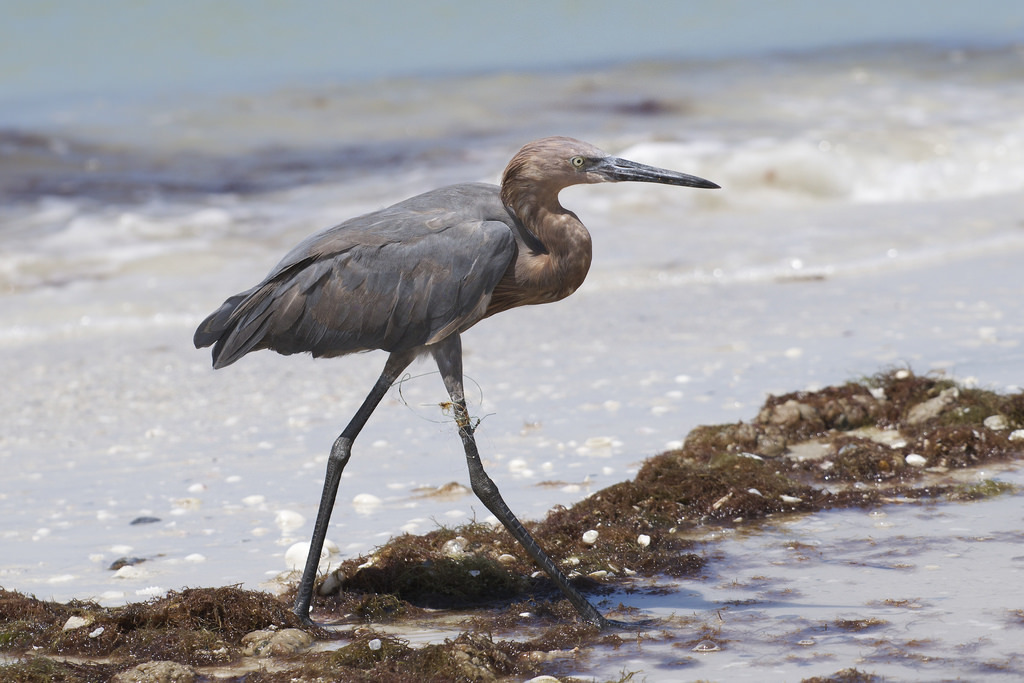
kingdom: Animalia
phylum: Chordata
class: Aves
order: Pelecaniformes
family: Ardeidae
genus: Egretta
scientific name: Egretta rufescens
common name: Reddish egret
